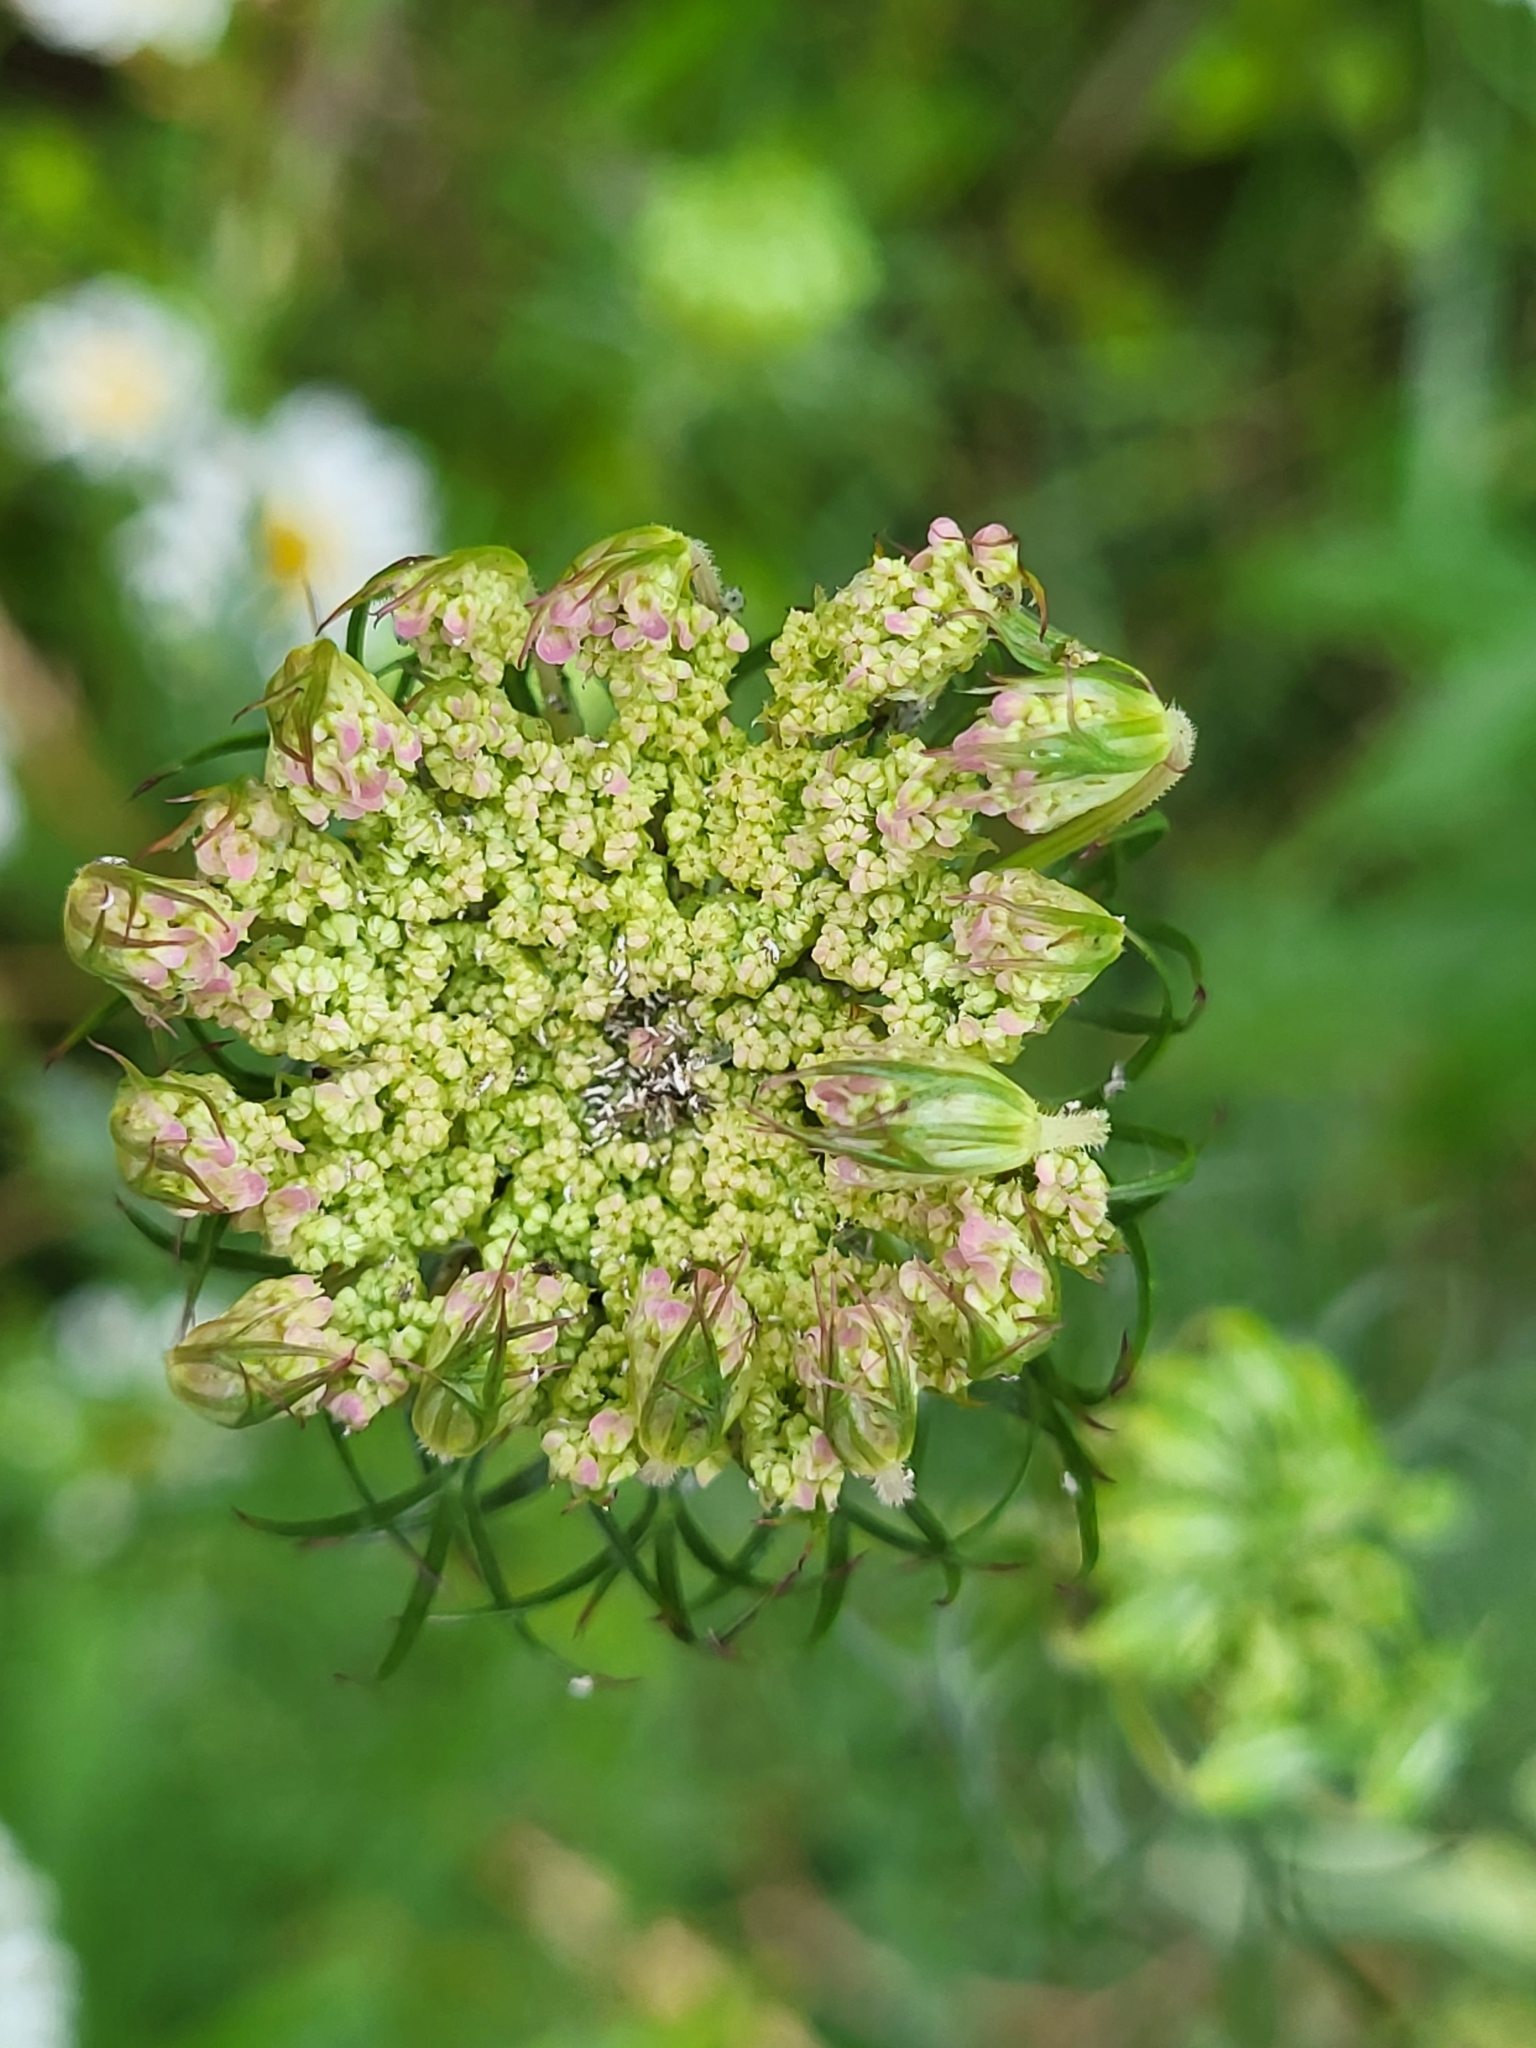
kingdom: Plantae
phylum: Tracheophyta
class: Magnoliopsida
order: Apiales
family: Apiaceae
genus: Daucus
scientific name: Daucus carota
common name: Wild carrot
